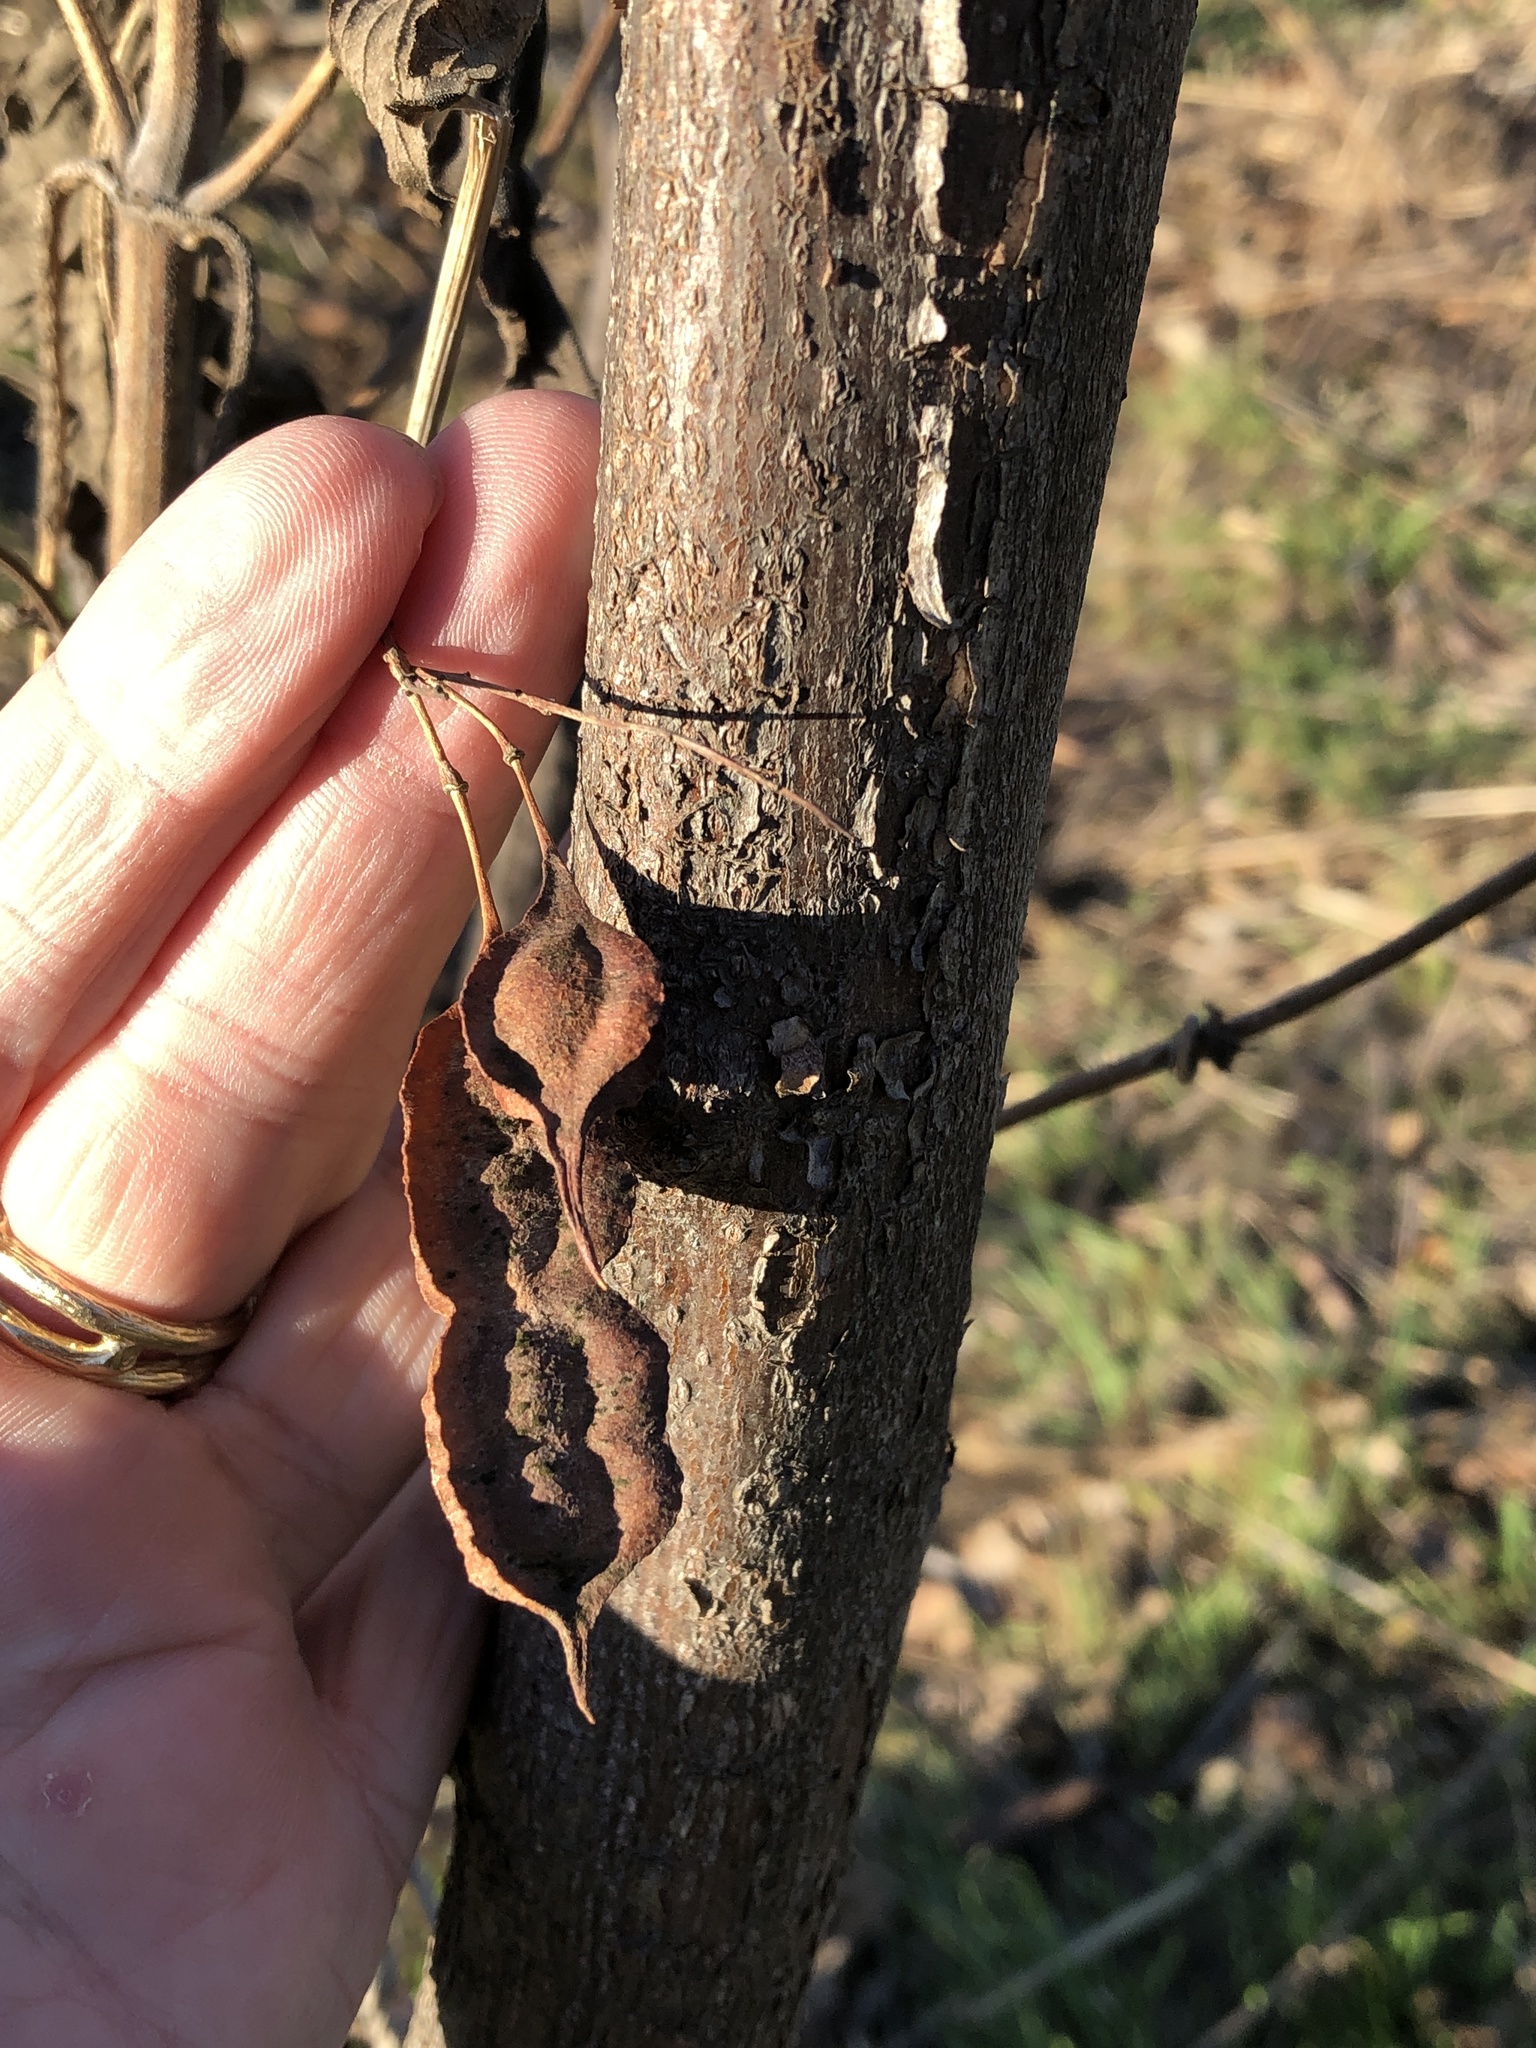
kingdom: Plantae
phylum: Tracheophyta
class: Magnoliopsida
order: Fabales
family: Fabaceae
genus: Sesbania
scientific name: Sesbania drummondii
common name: Poison-bean
